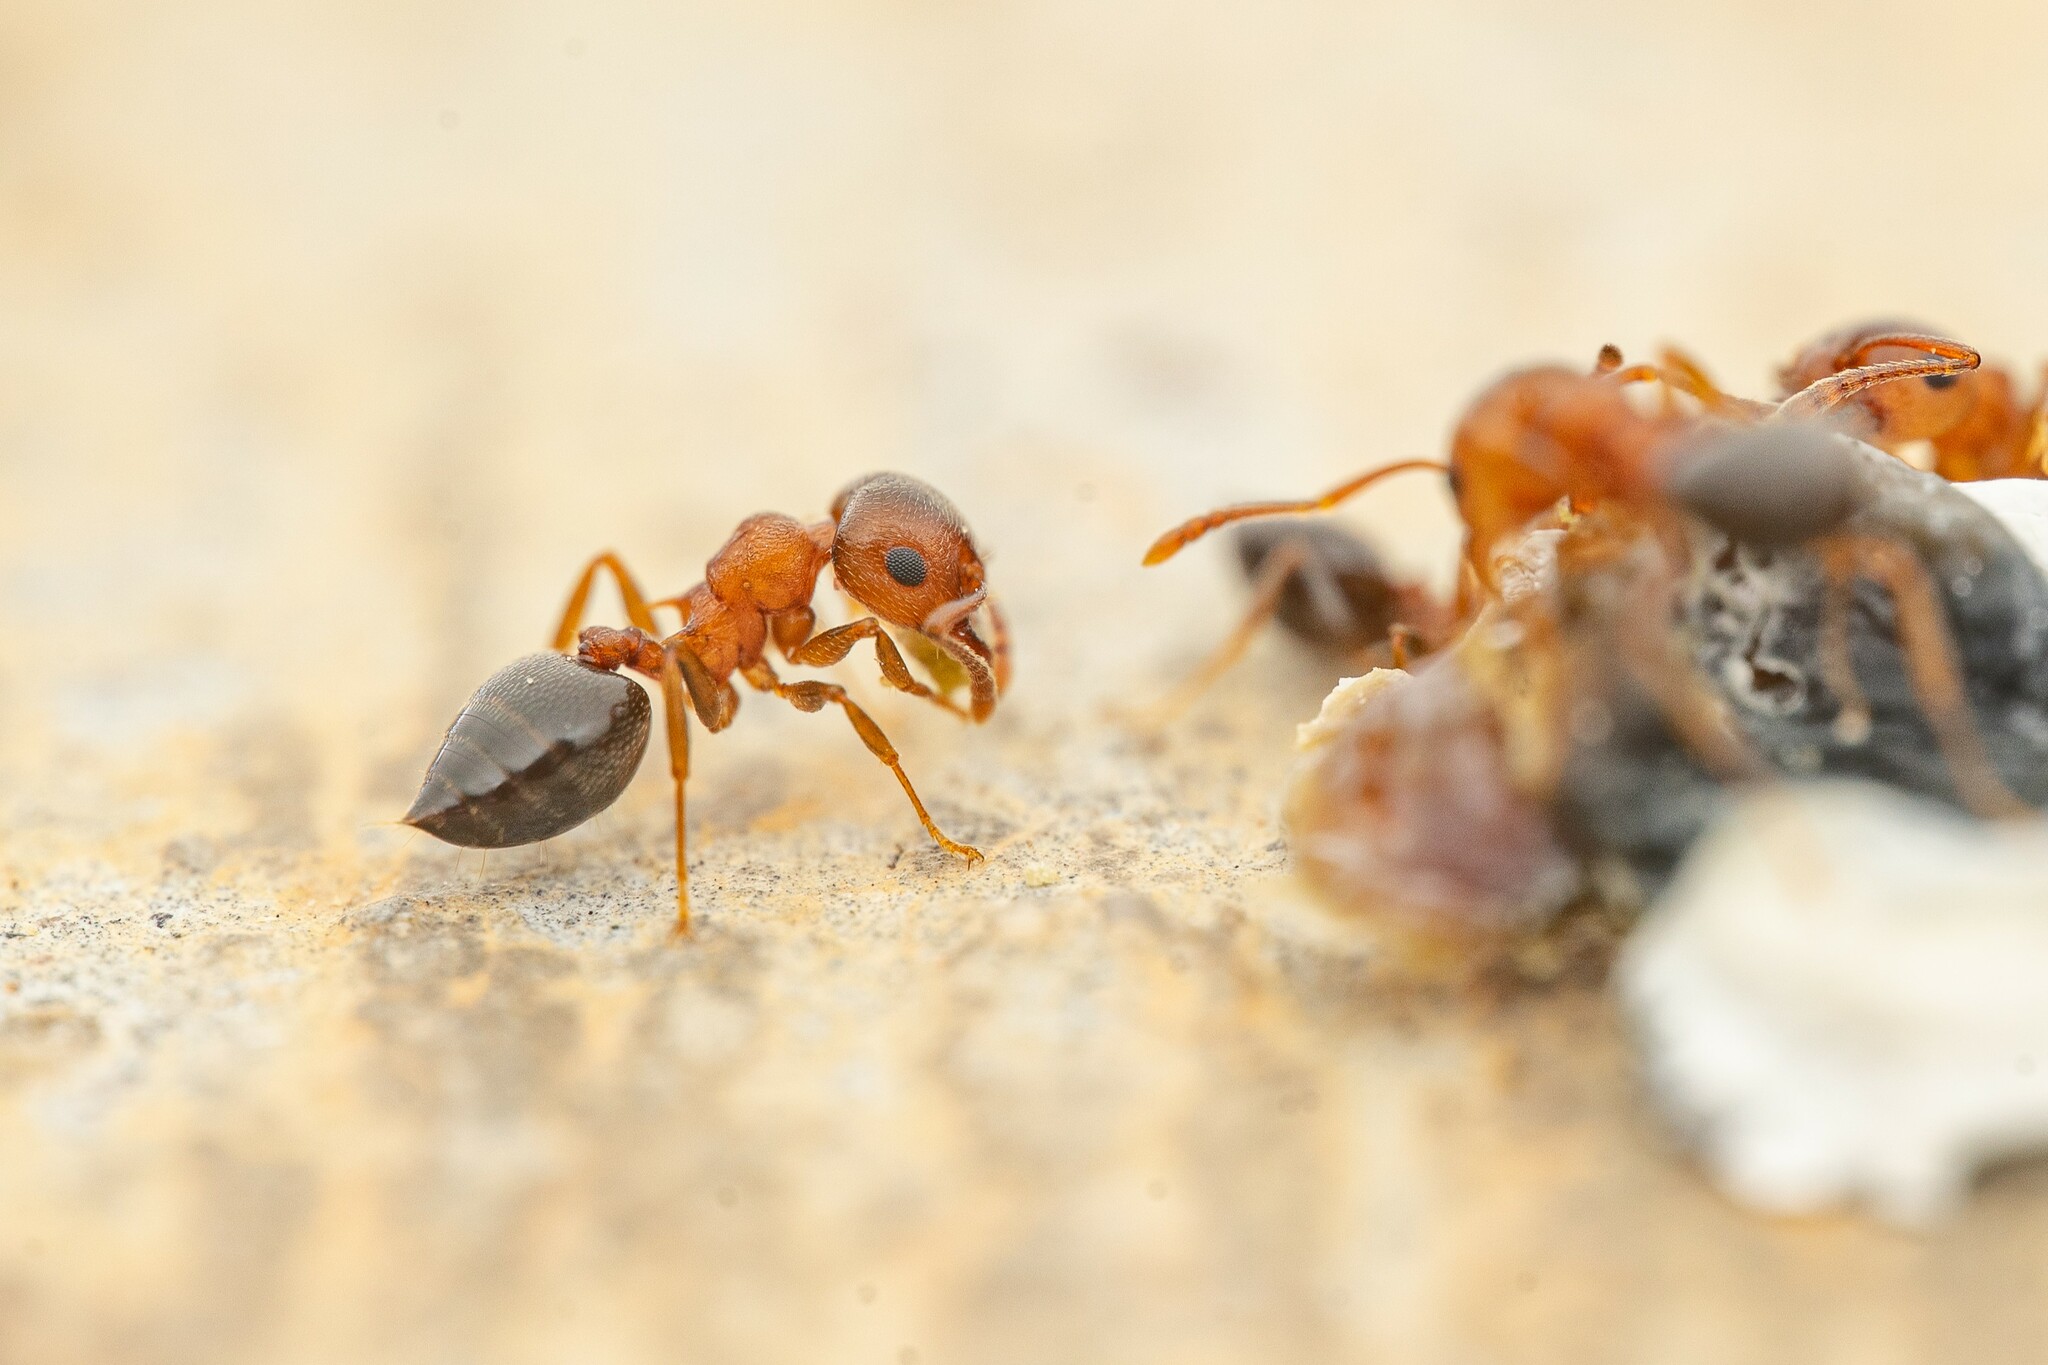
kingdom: Animalia
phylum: Arthropoda
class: Insecta
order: Hymenoptera
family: Formicidae
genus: Crematogaster
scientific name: Crematogaster
